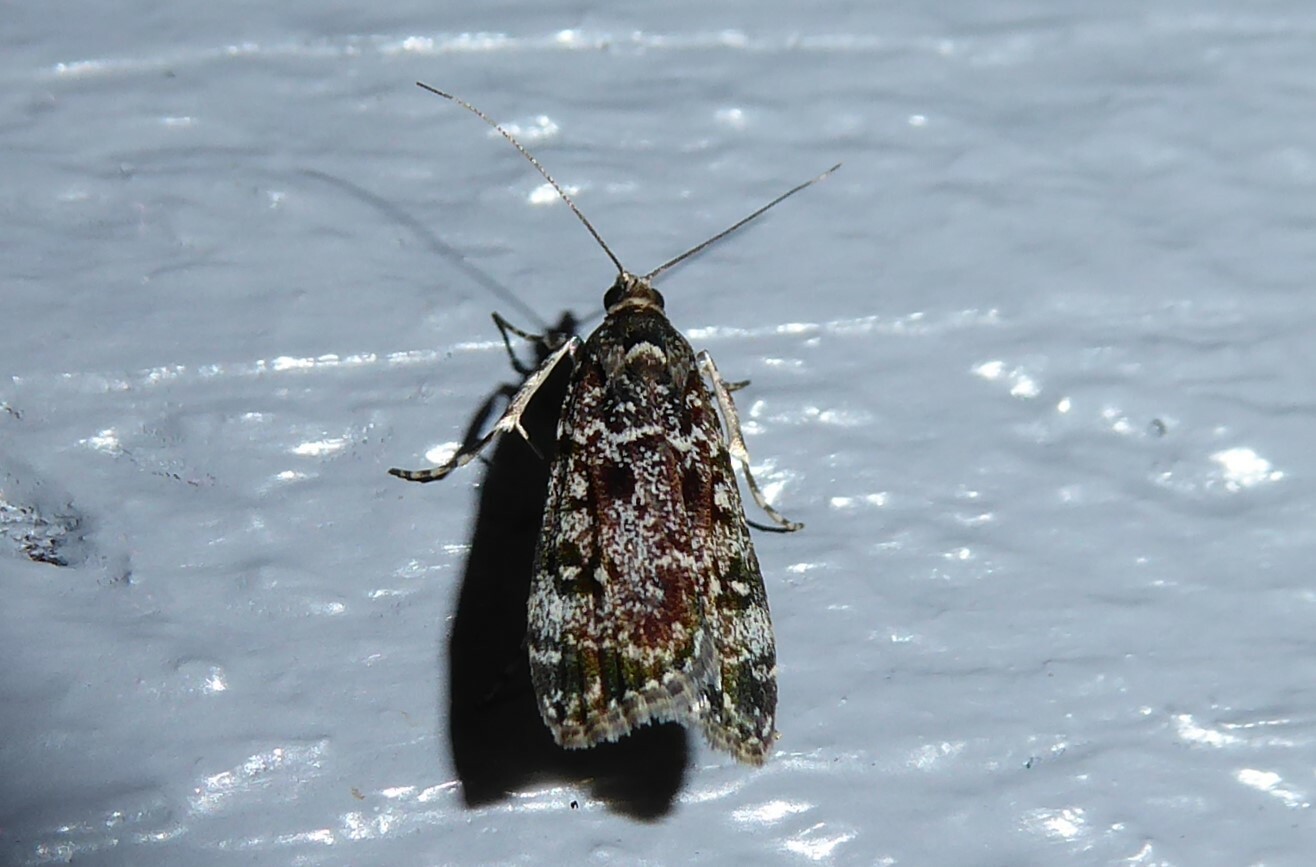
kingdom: Animalia
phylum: Arthropoda
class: Insecta
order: Lepidoptera
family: Crambidae
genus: Eudonia
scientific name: Eudonia philerga
